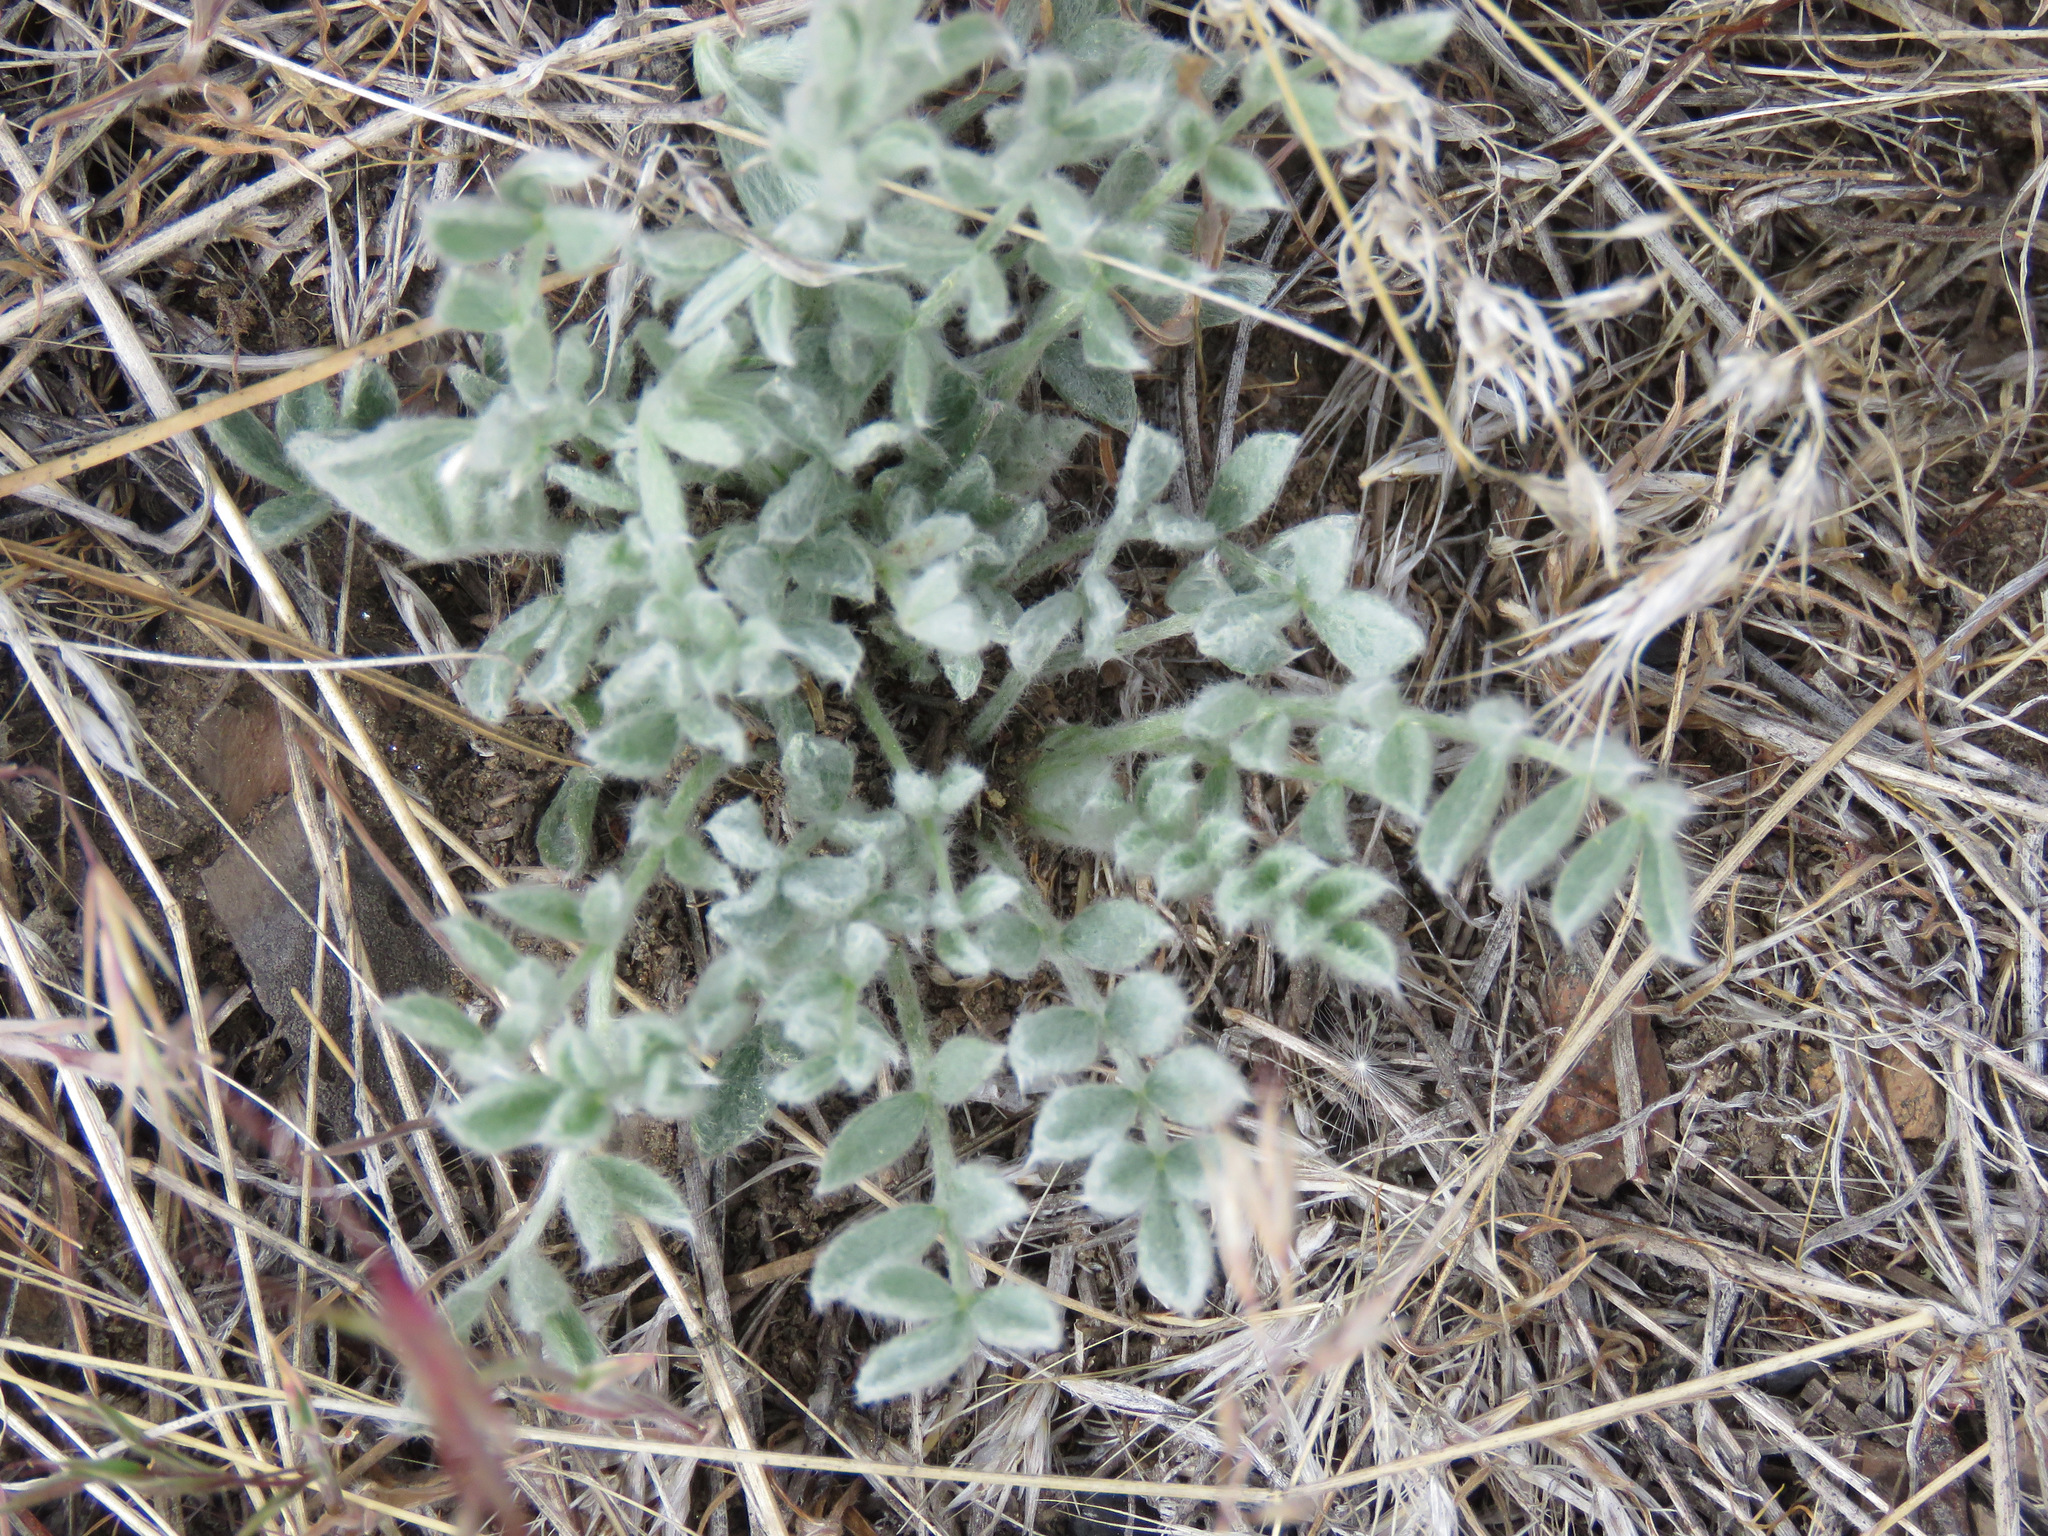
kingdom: Plantae
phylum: Tracheophyta
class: Magnoliopsida
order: Fabales
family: Fabaceae
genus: Astragalus
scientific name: Astragalus purshii
